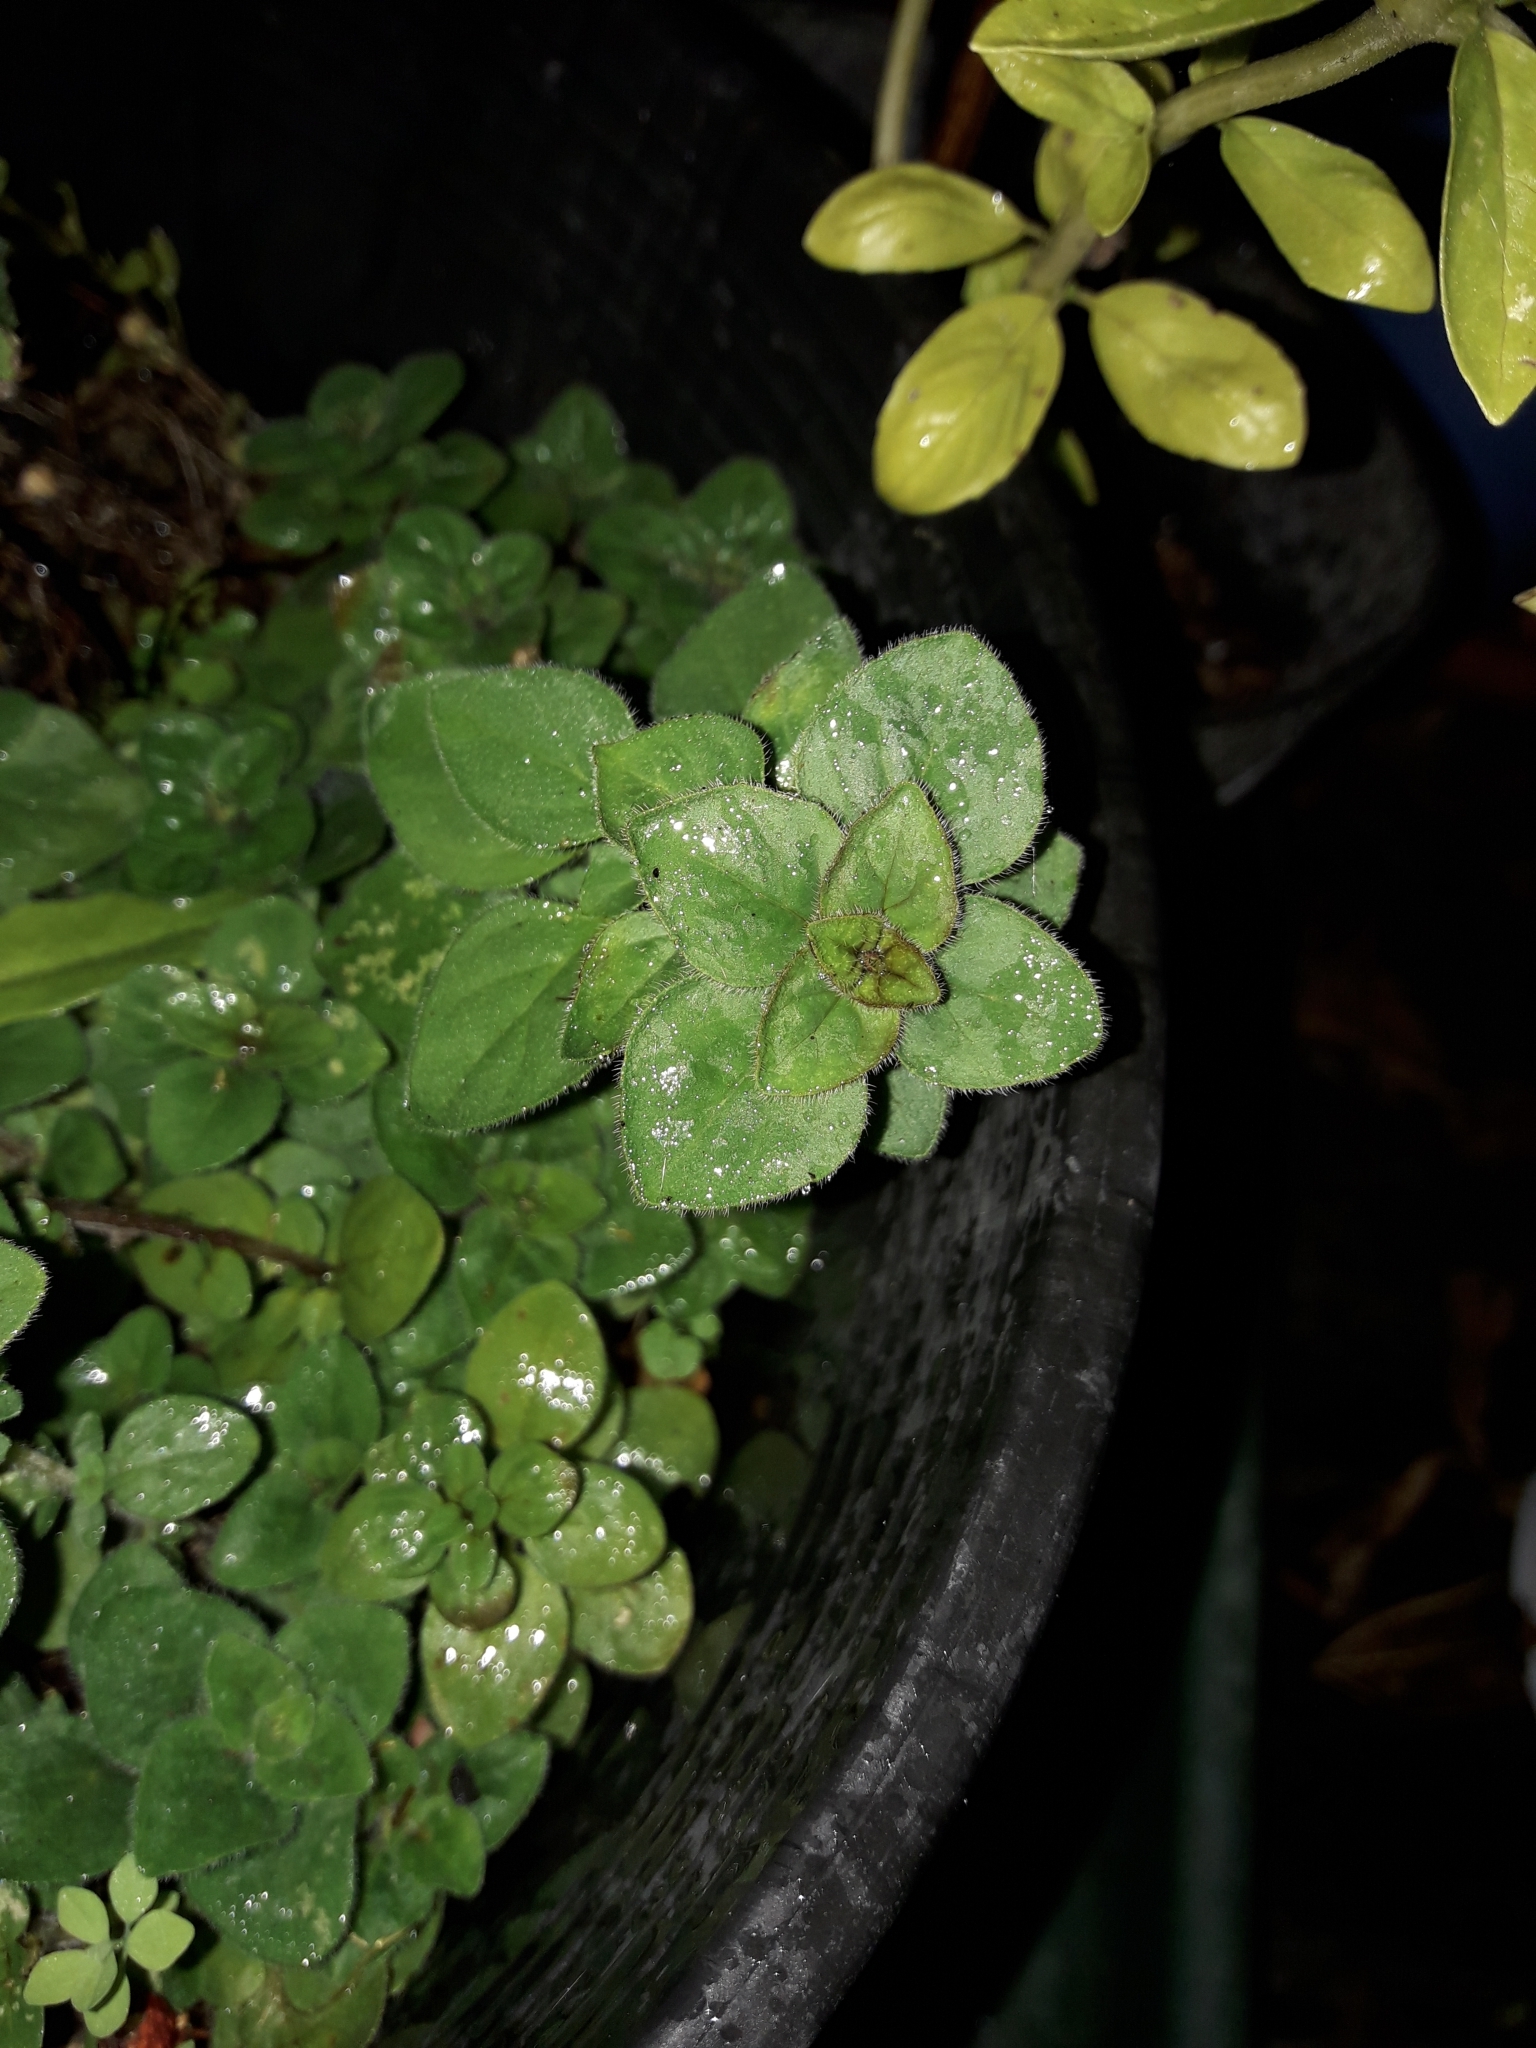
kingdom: Plantae
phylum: Tracheophyta
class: Magnoliopsida
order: Lamiales
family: Lamiaceae
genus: Origanum
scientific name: Origanum vulgare
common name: Wild marjoram
